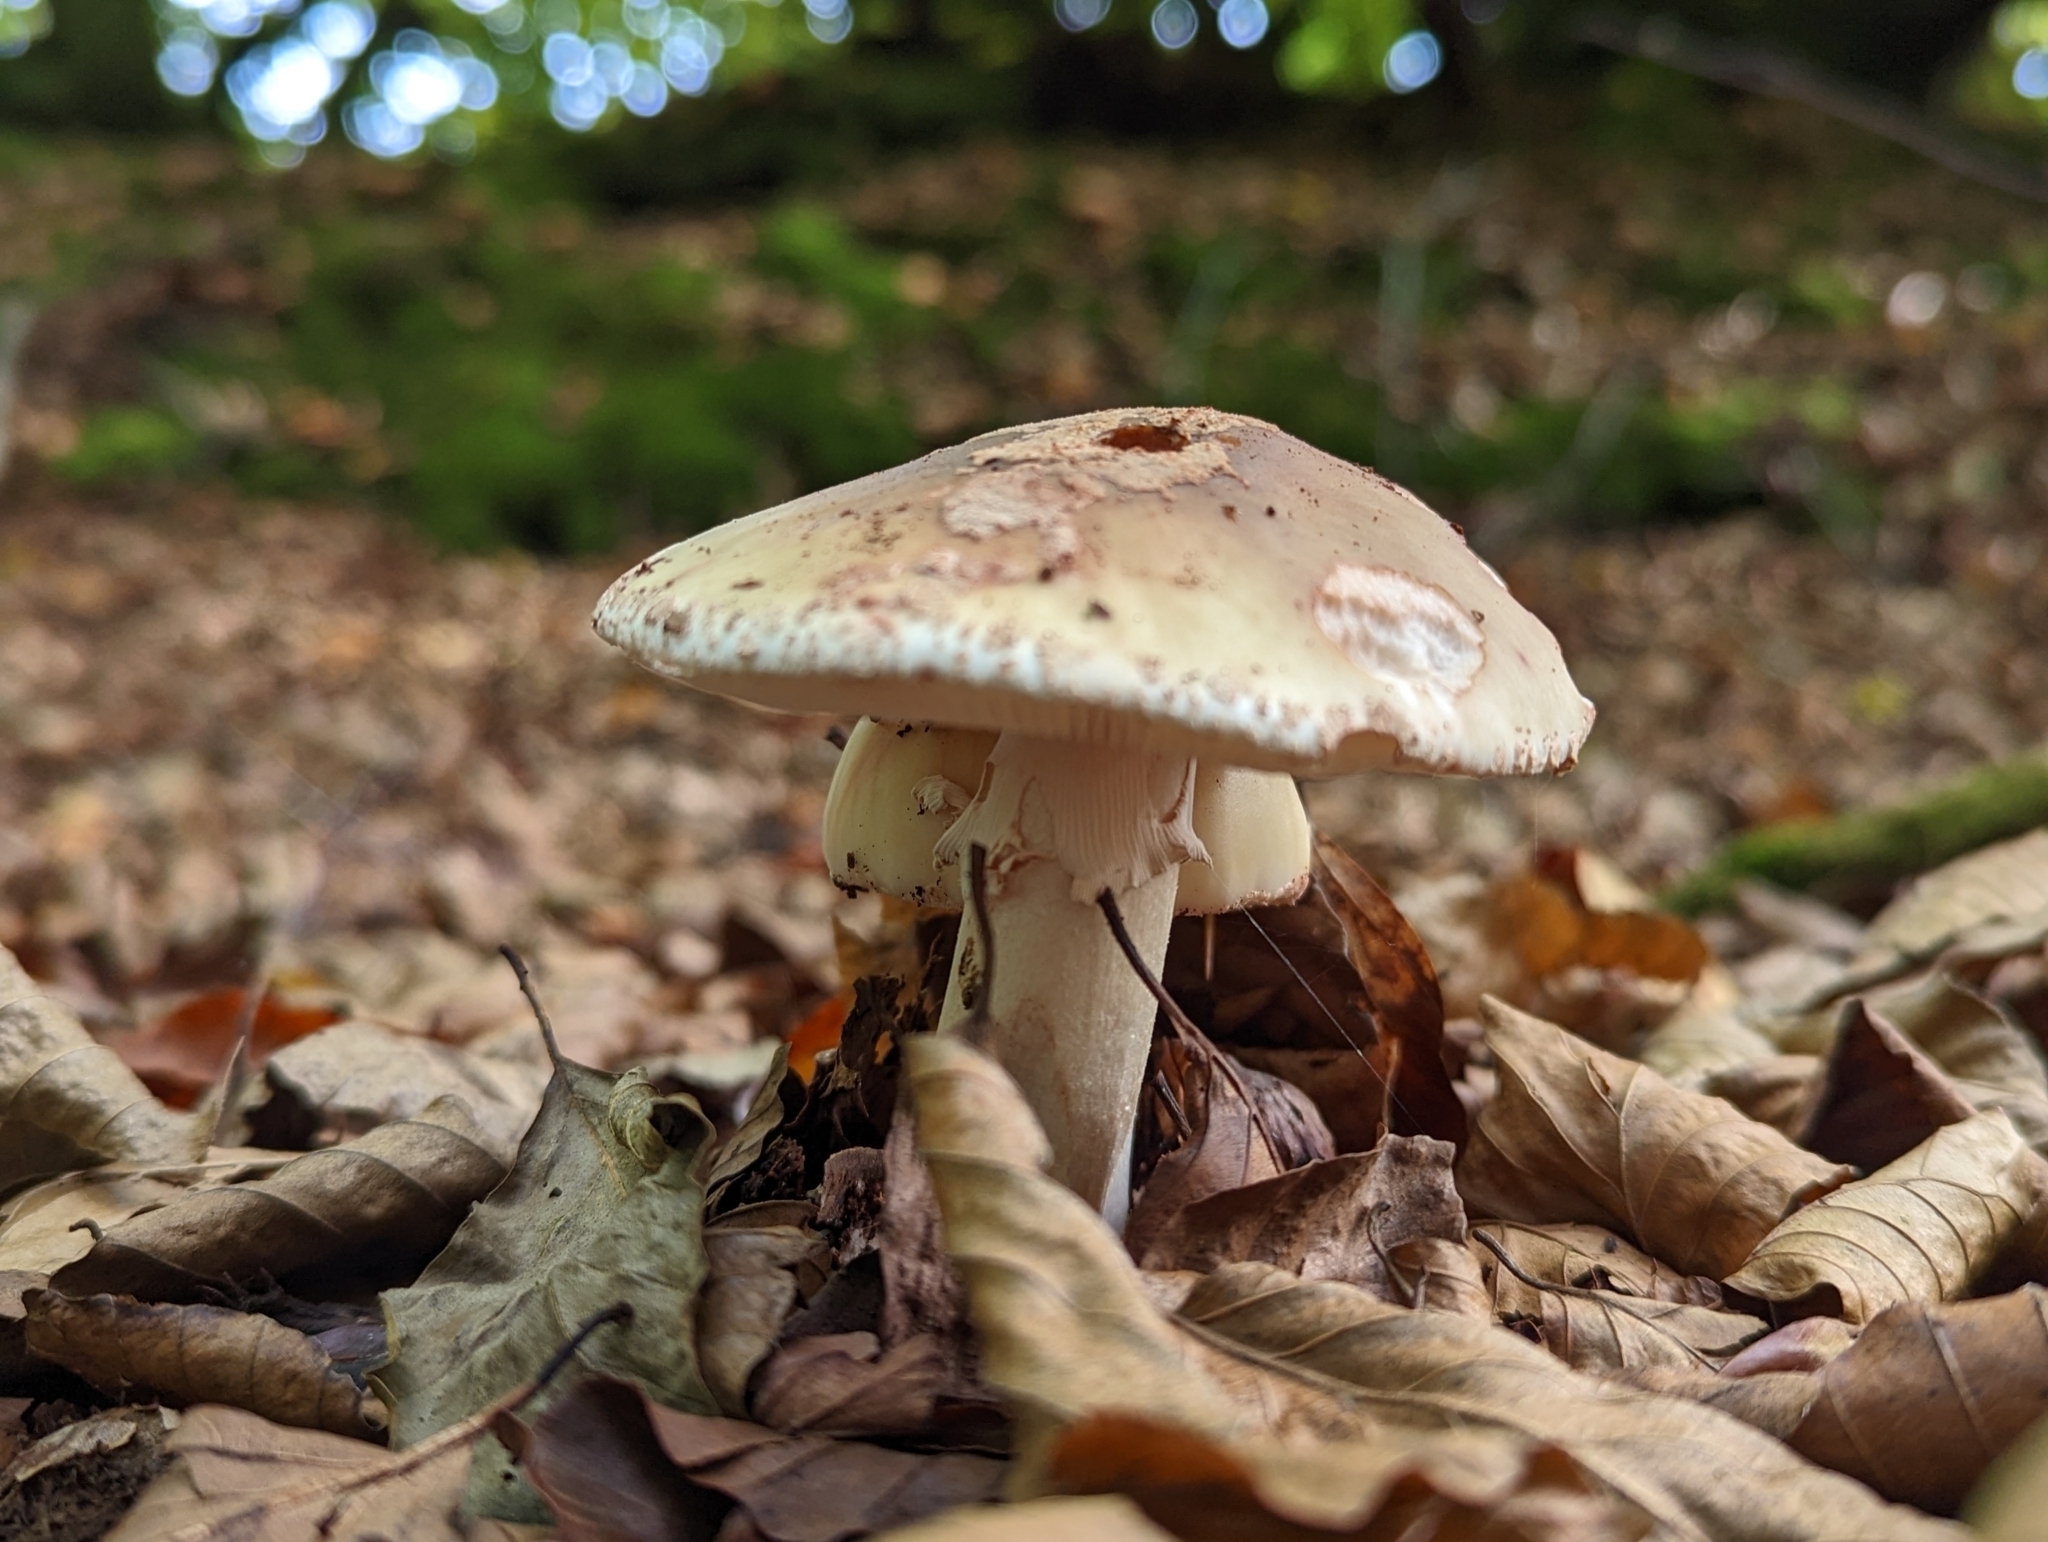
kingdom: Fungi
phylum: Basidiomycota
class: Agaricomycetes
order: Agaricales
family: Amanitaceae
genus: Amanita
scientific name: Amanita rubescens
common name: Blusher
